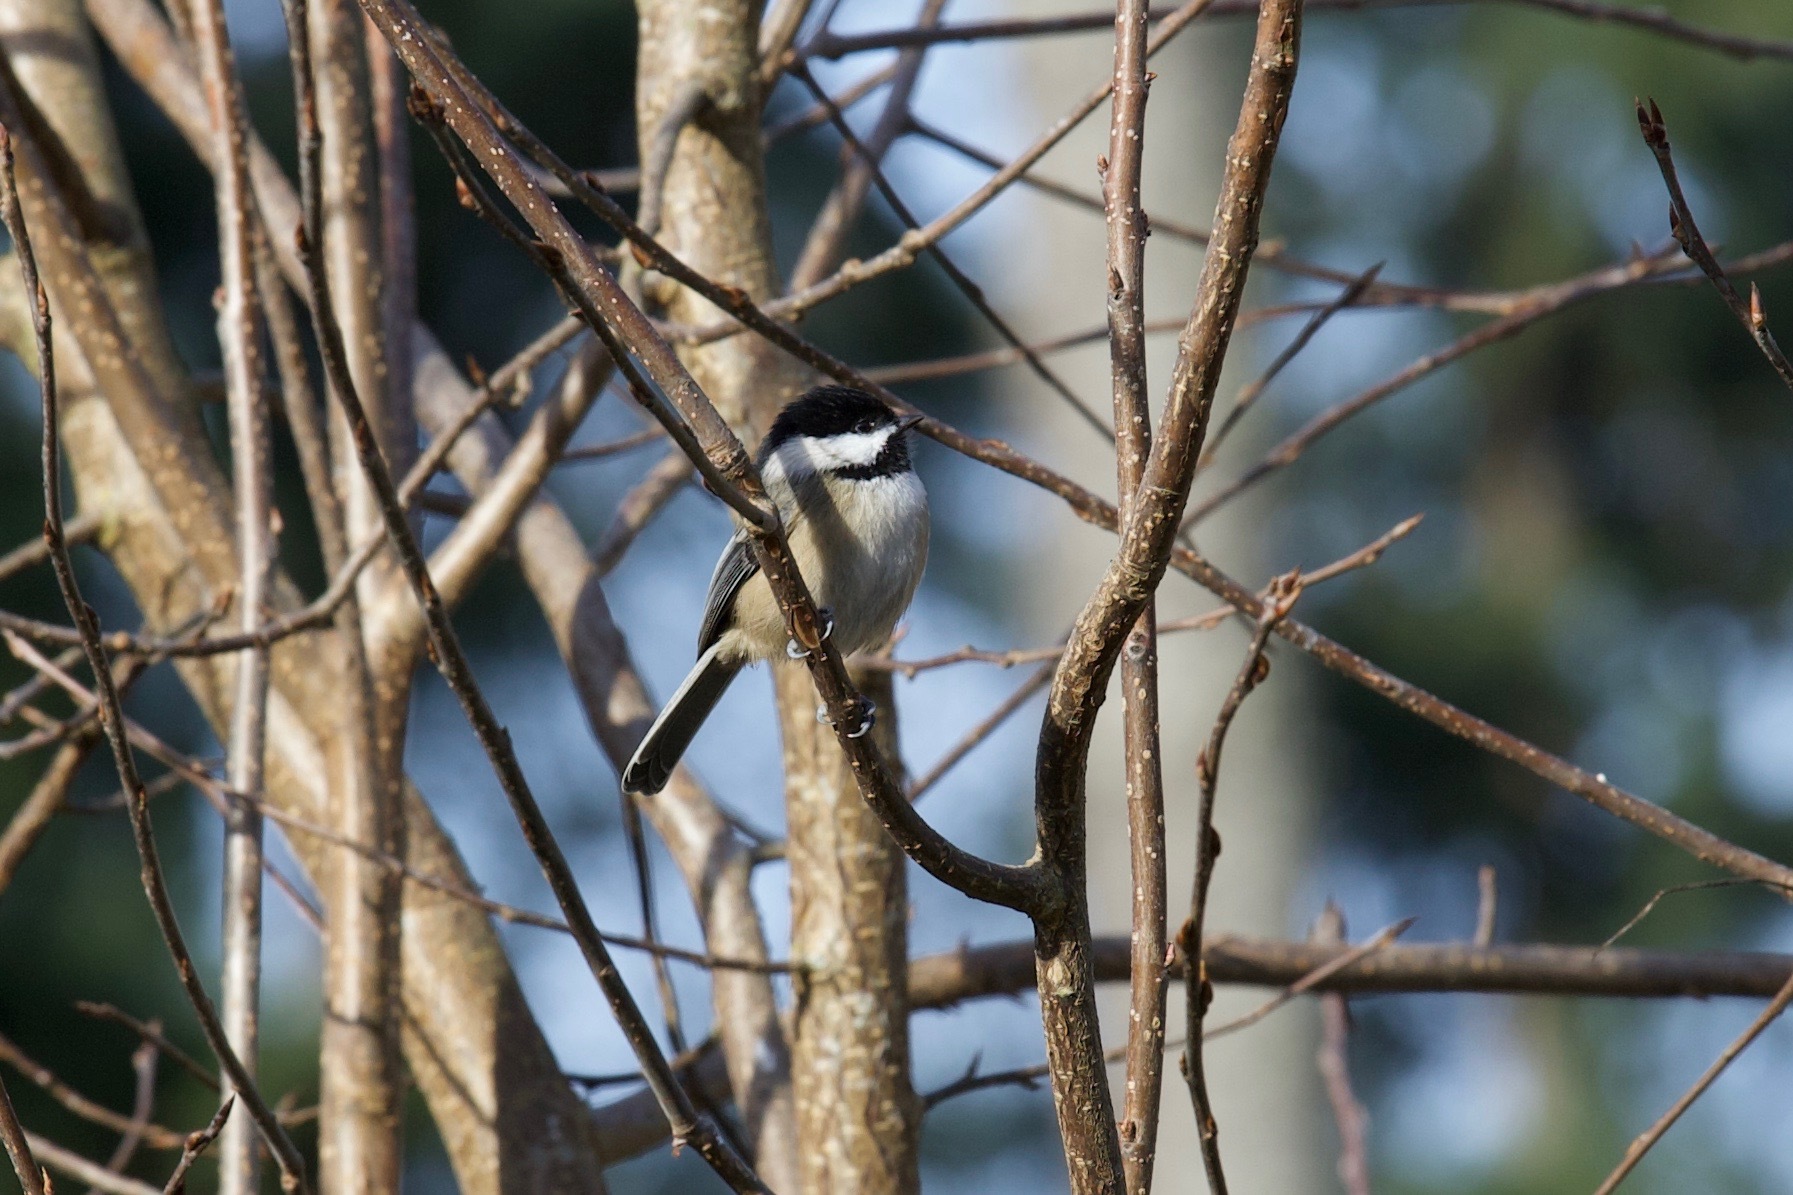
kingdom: Animalia
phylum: Chordata
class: Aves
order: Passeriformes
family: Paridae
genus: Poecile
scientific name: Poecile atricapillus
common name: Black-capped chickadee
